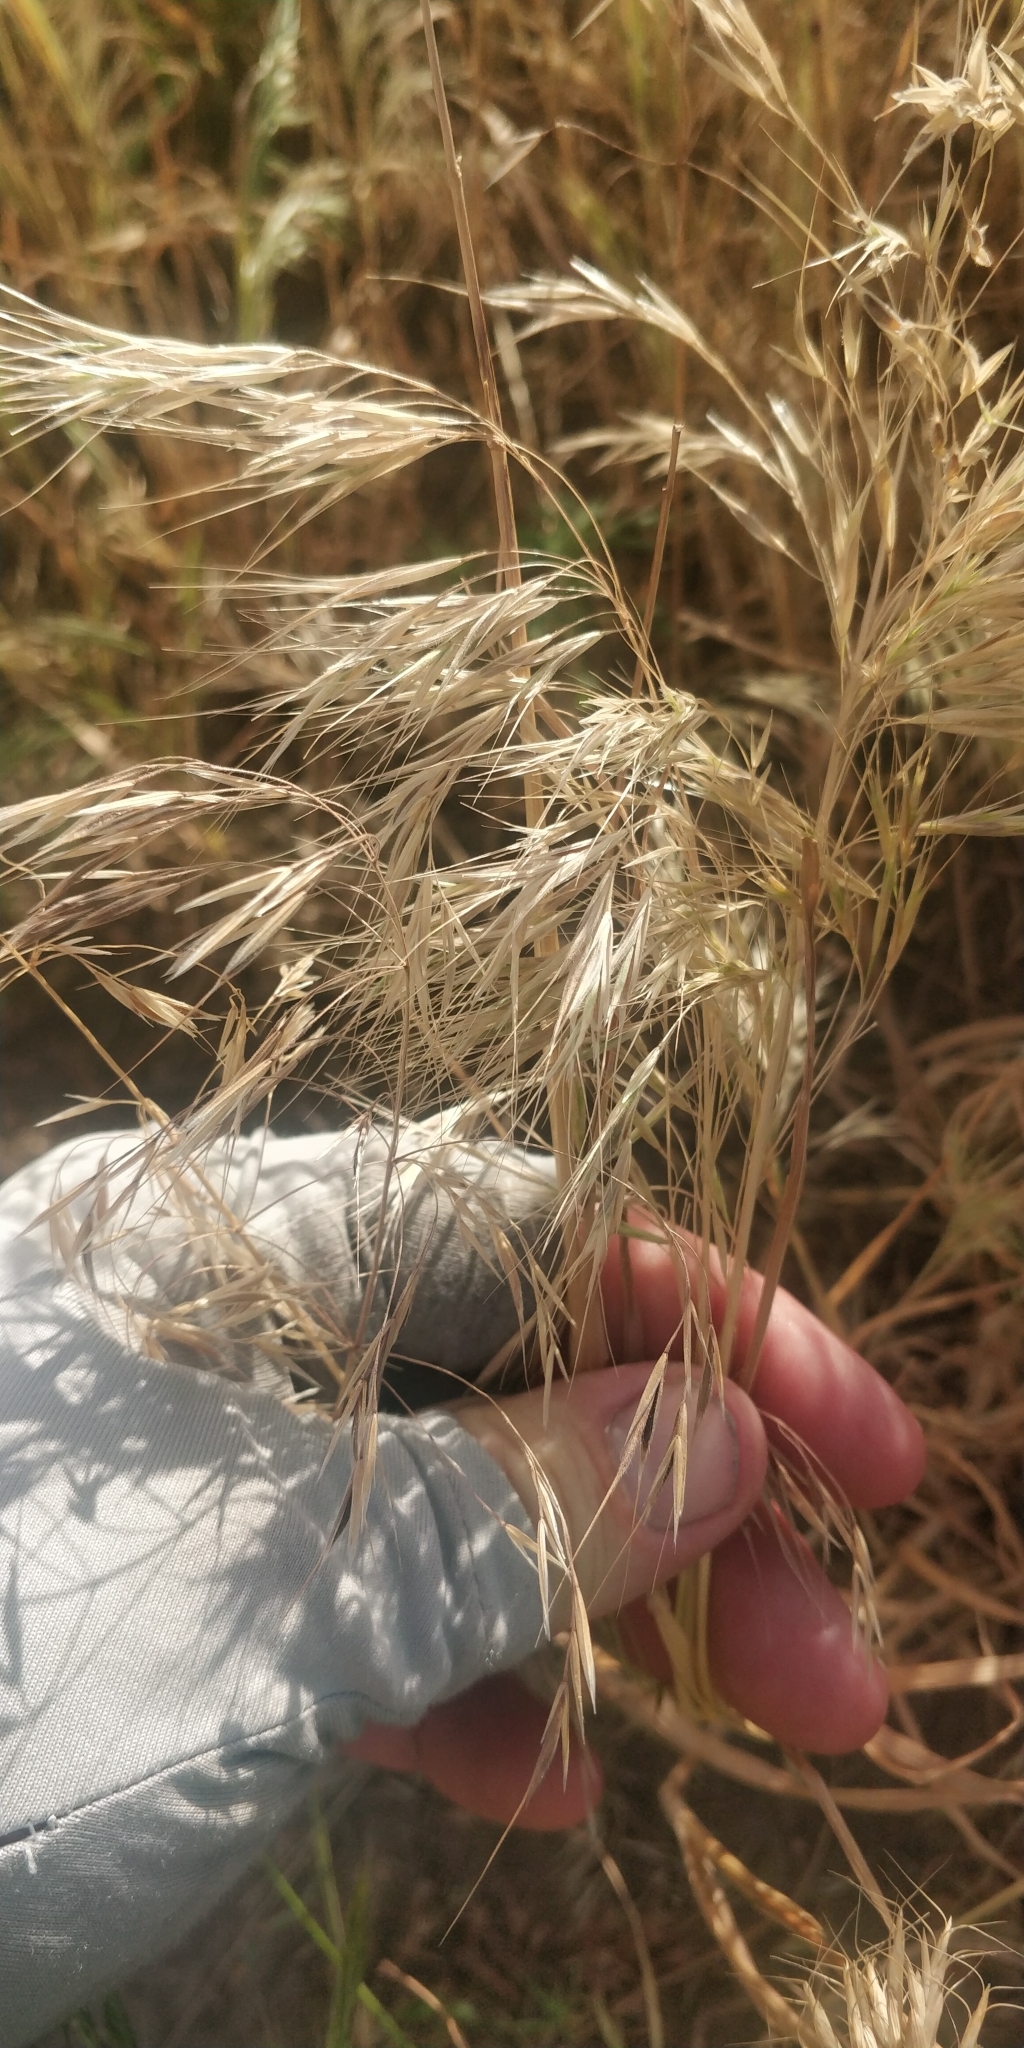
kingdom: Plantae
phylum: Tracheophyta
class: Liliopsida
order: Poales
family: Poaceae
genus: Bromus
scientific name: Bromus tectorum
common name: Cheatgrass
